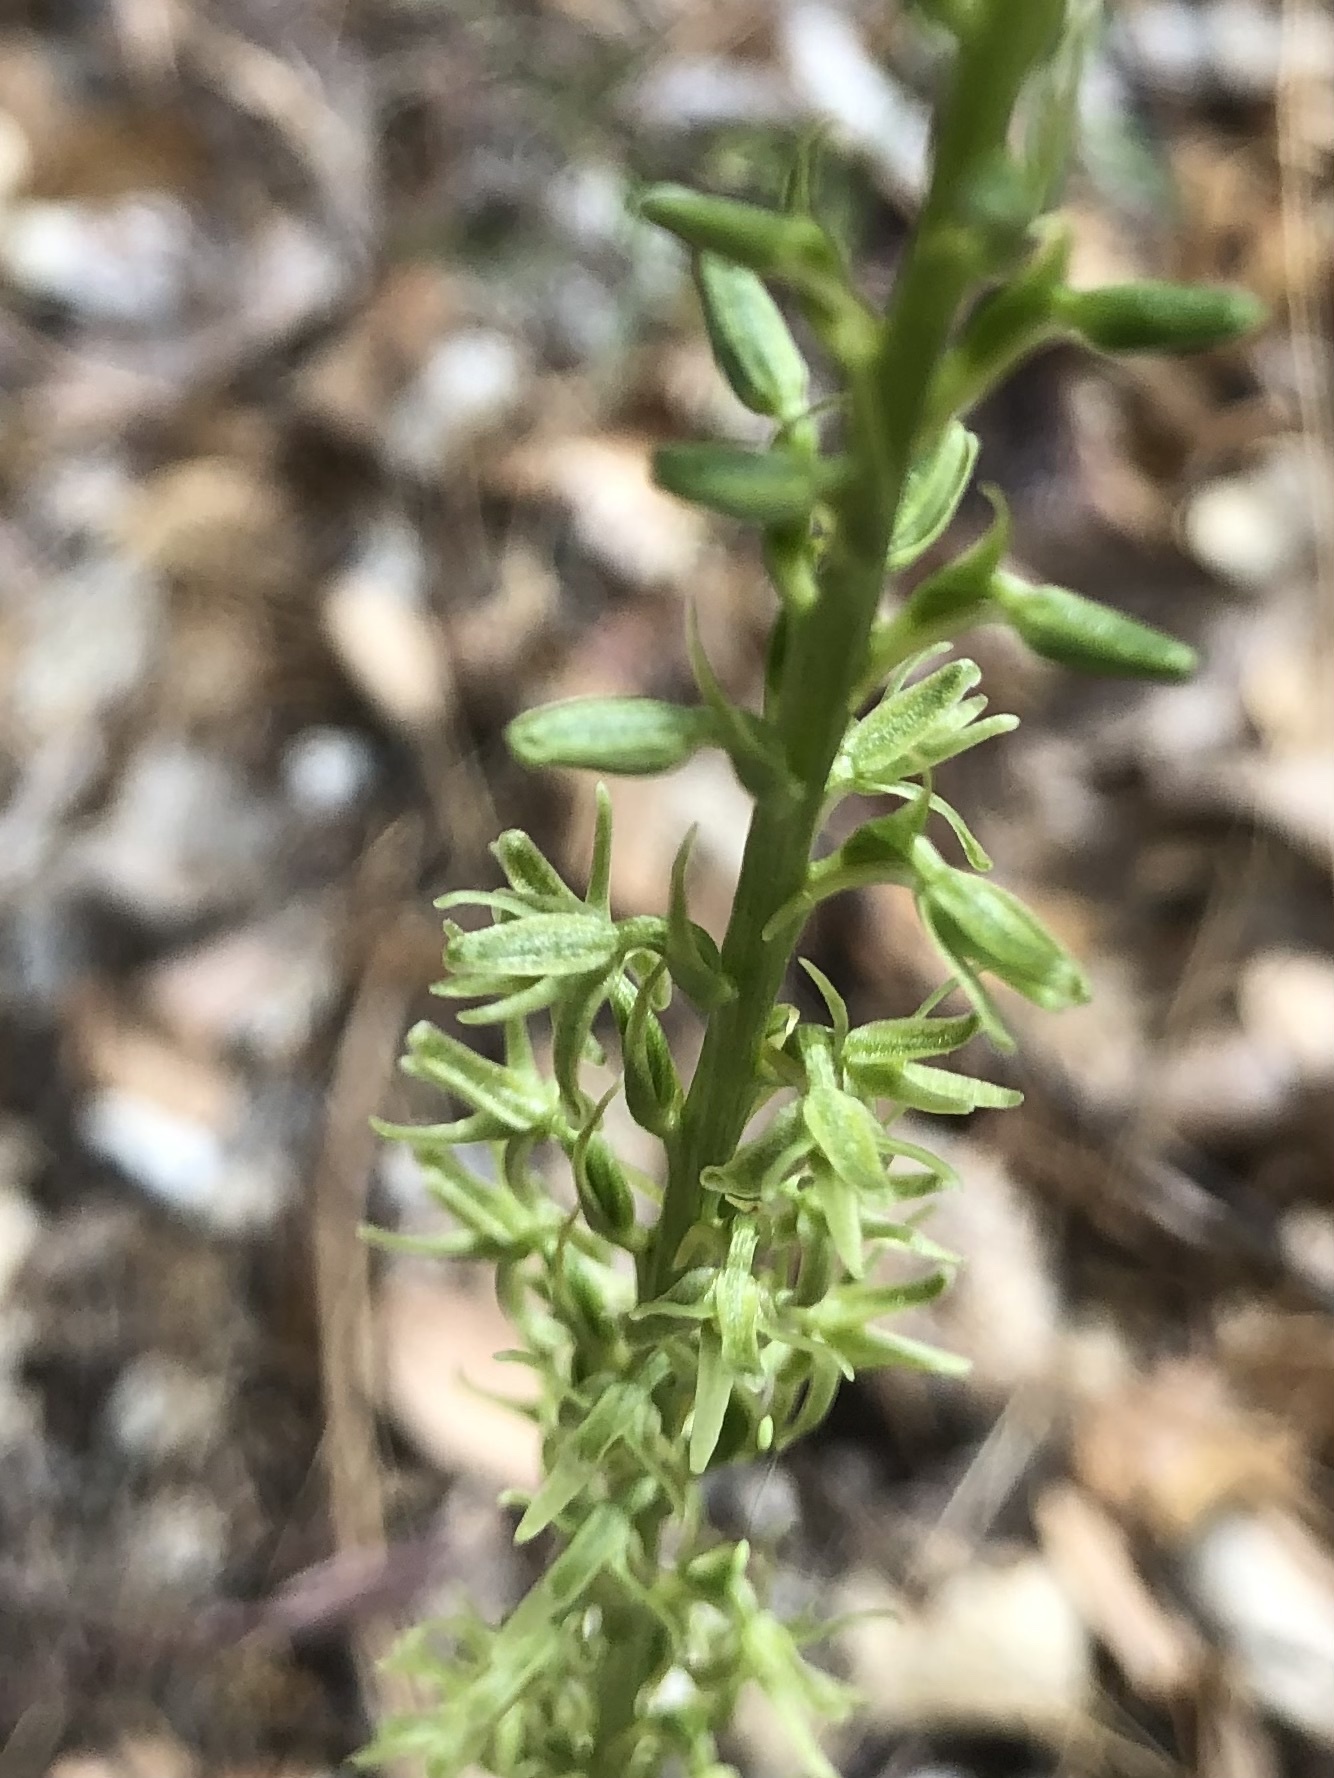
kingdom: Plantae
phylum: Tracheophyta
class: Liliopsida
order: Asparagales
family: Orchidaceae
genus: Platanthera
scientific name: Platanthera leptopetala
